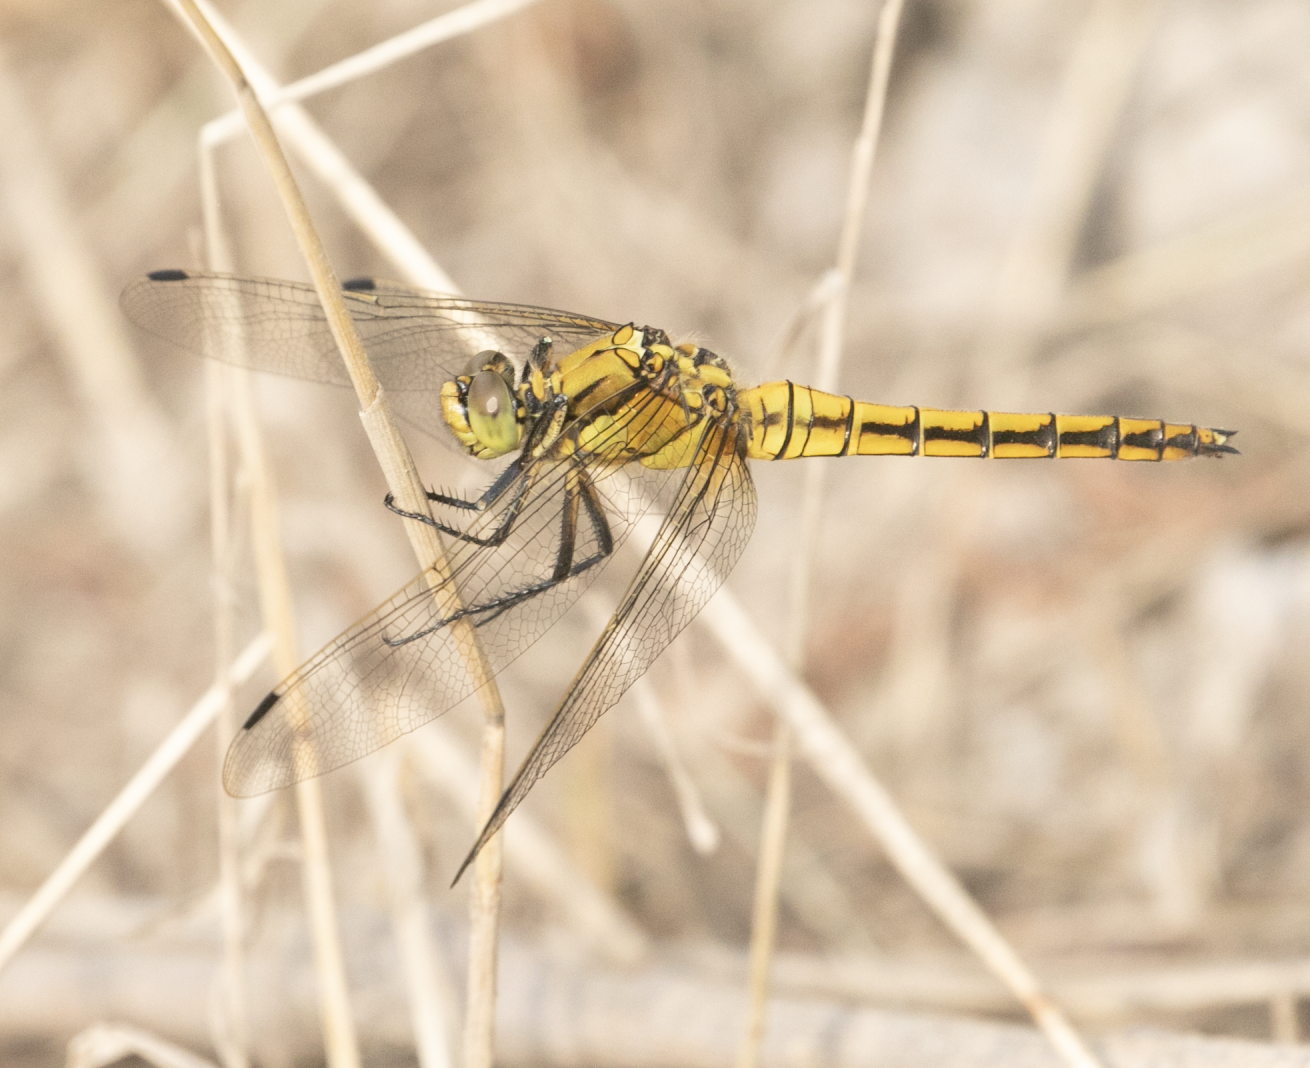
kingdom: Animalia
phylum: Arthropoda
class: Insecta
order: Odonata
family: Libellulidae
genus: Orthetrum
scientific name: Orthetrum cancellatum
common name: Black-tailed skimmer
